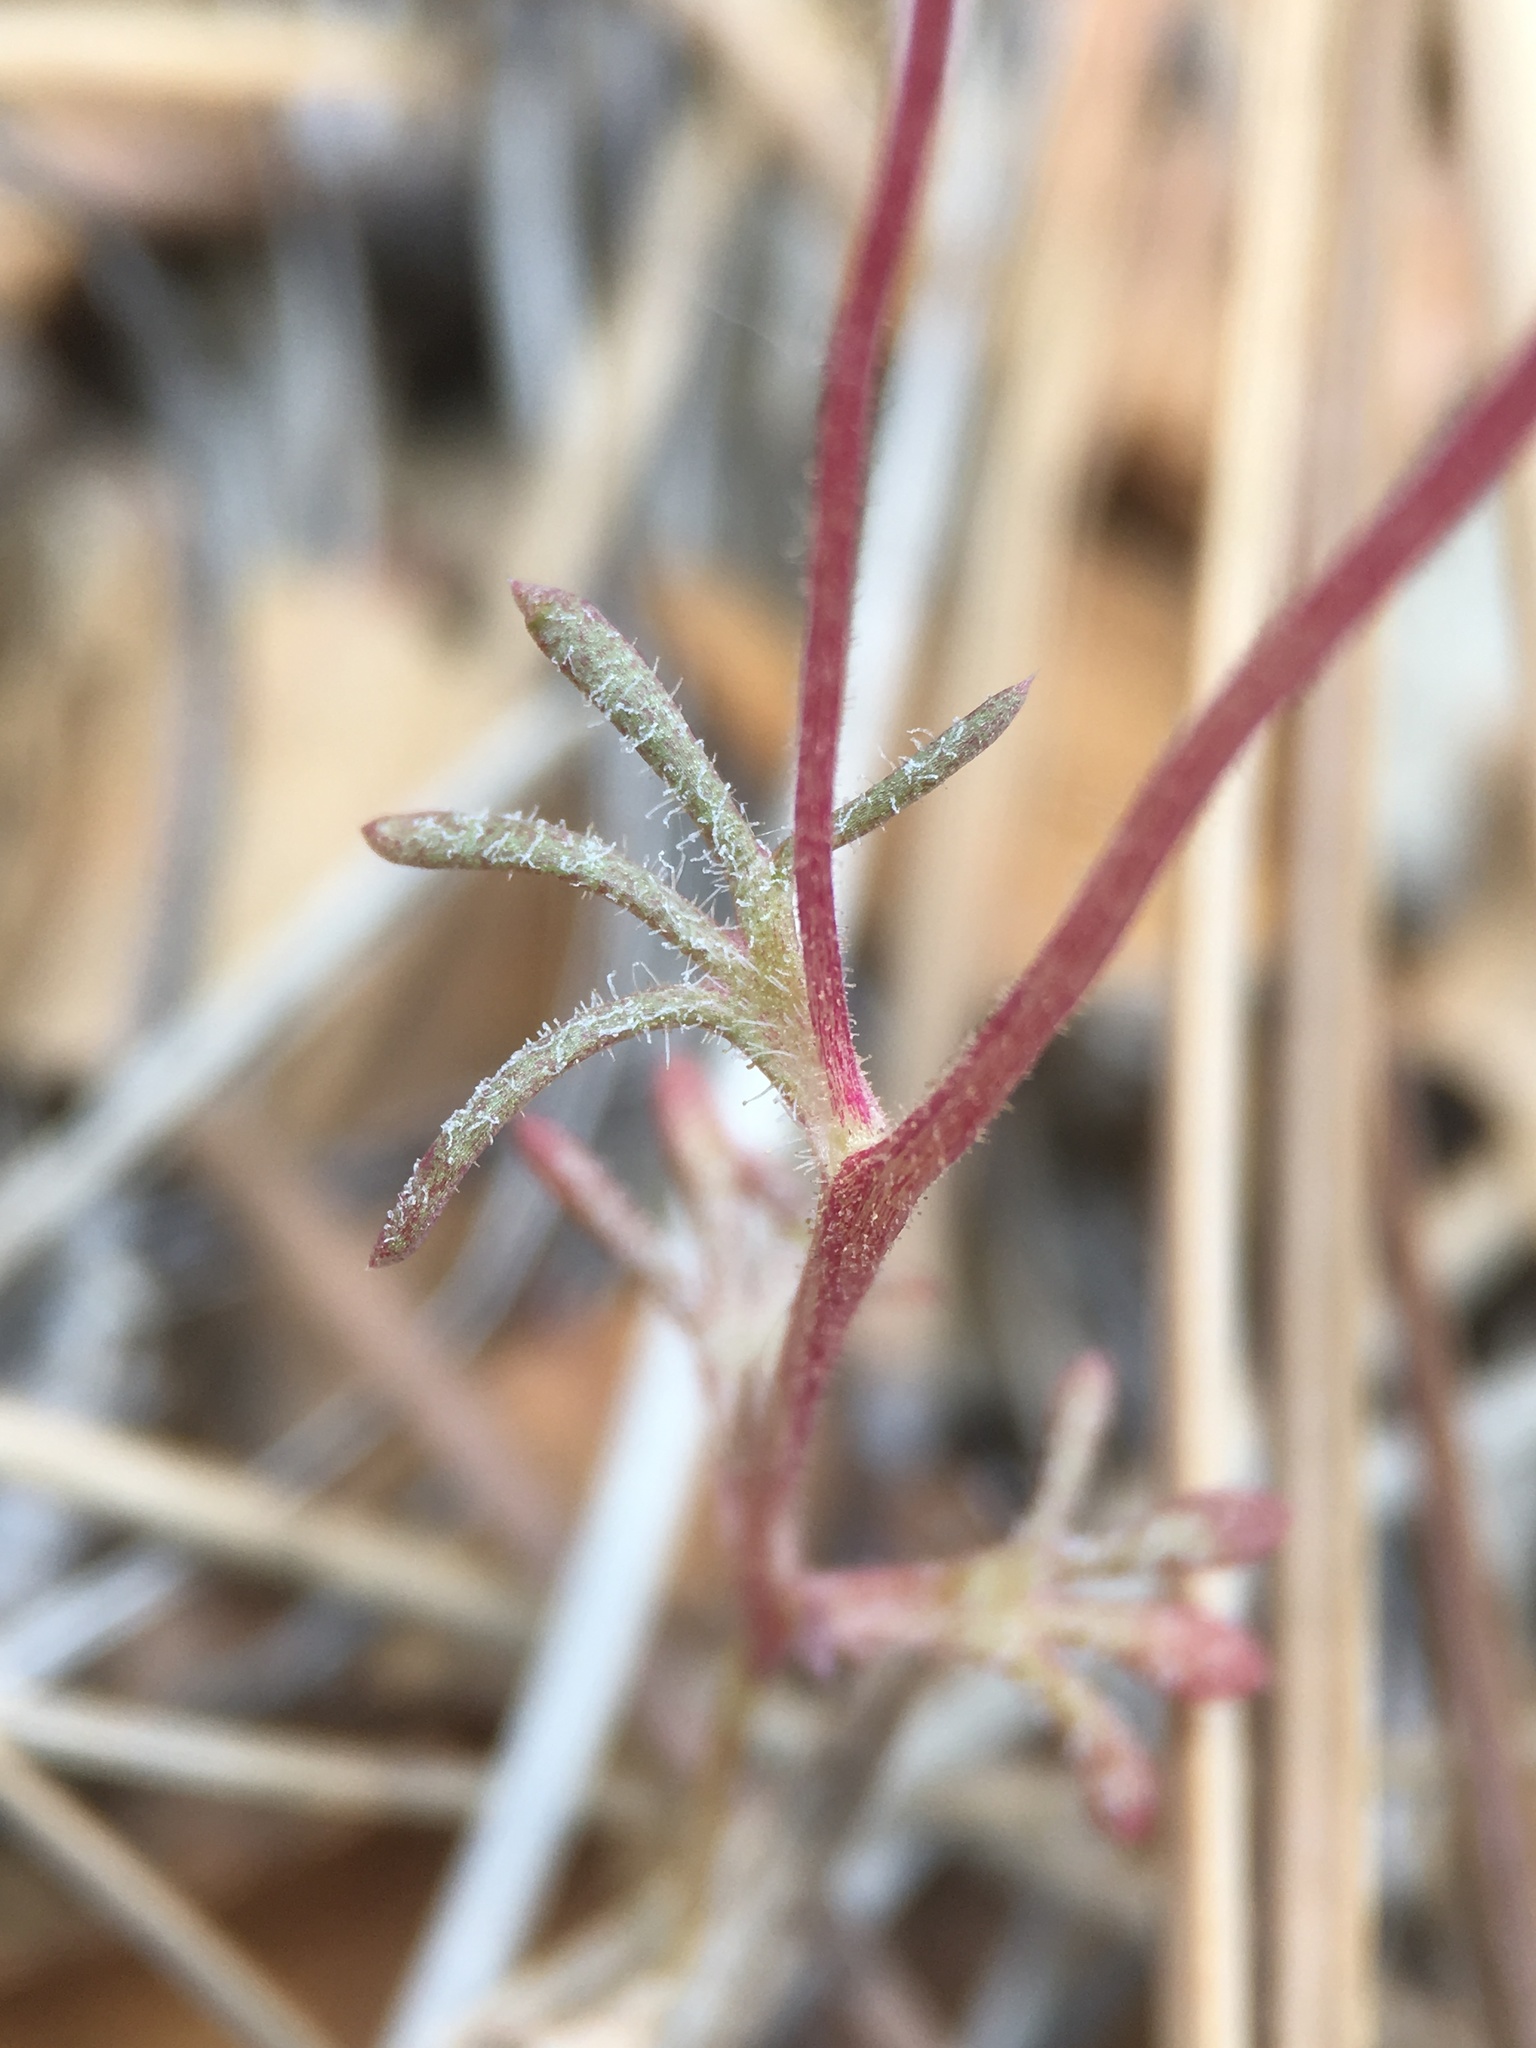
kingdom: Plantae
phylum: Tracheophyta
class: Magnoliopsida
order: Ericales
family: Polemoniaceae
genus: Linanthus
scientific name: Linanthus concinnus
